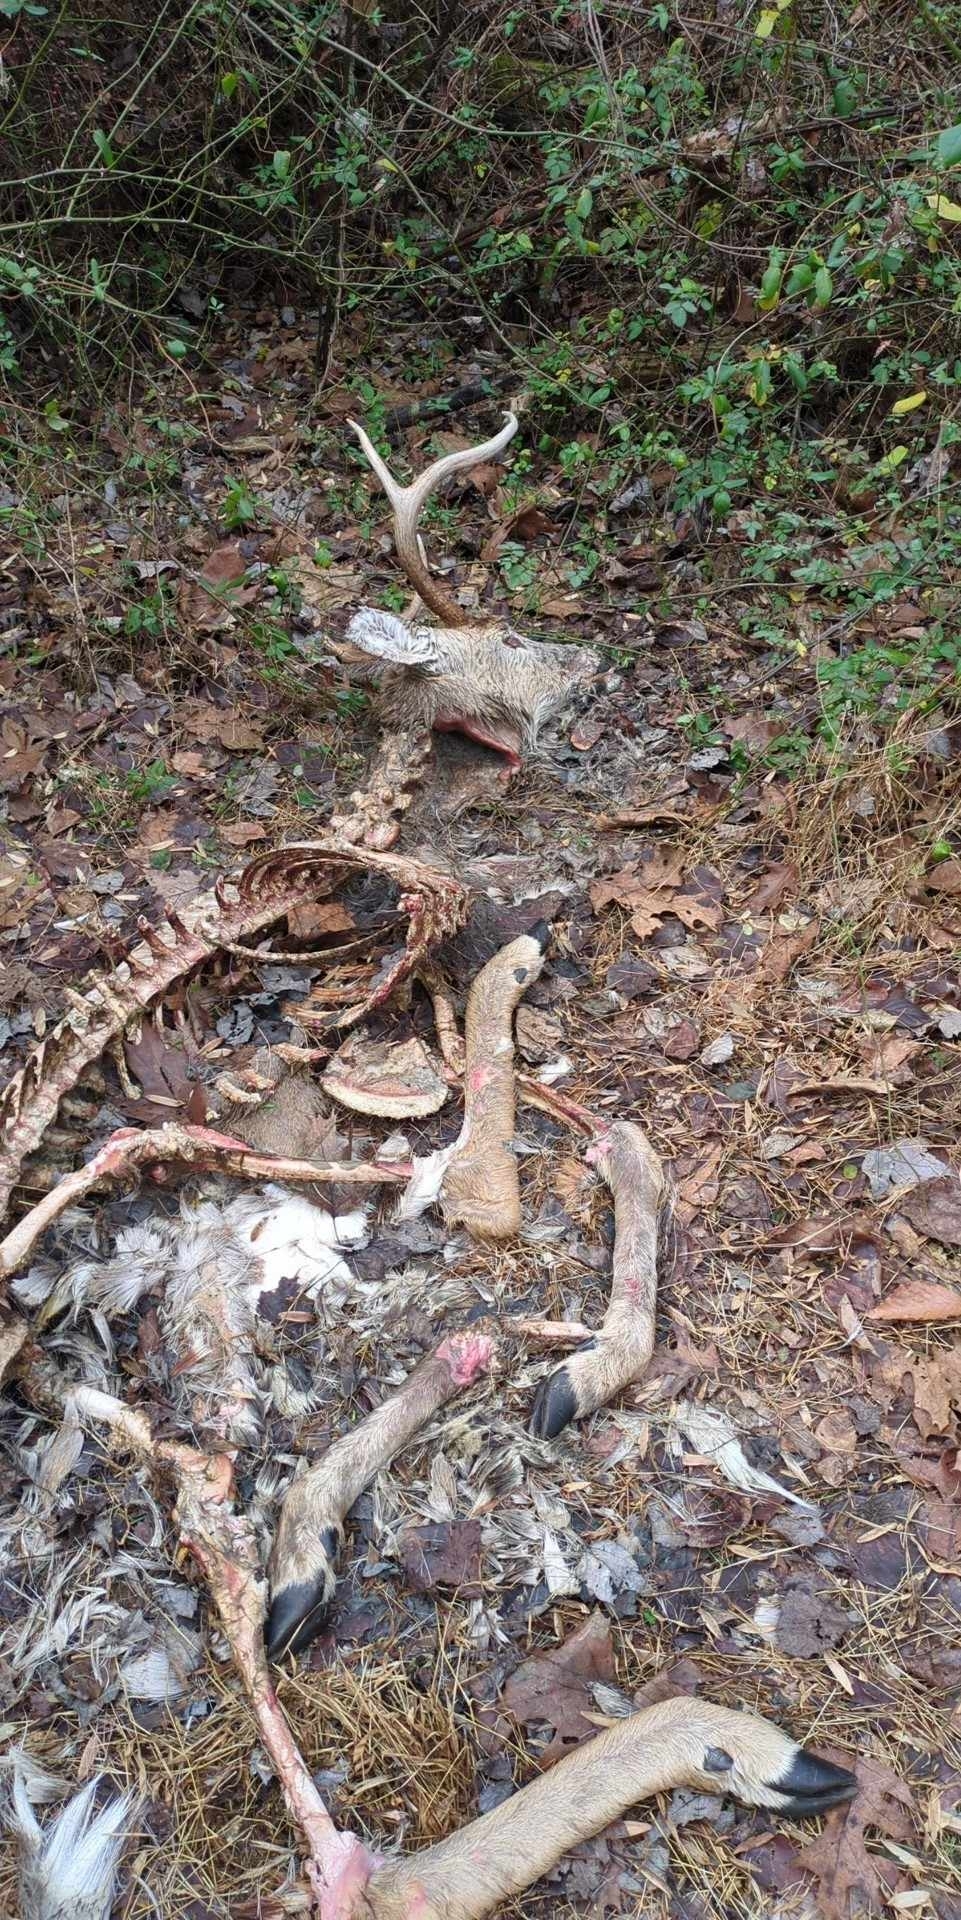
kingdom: Animalia
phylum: Chordata
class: Mammalia
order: Artiodactyla
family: Cervidae
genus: Odocoileus
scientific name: Odocoileus virginianus
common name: White-tailed deer
